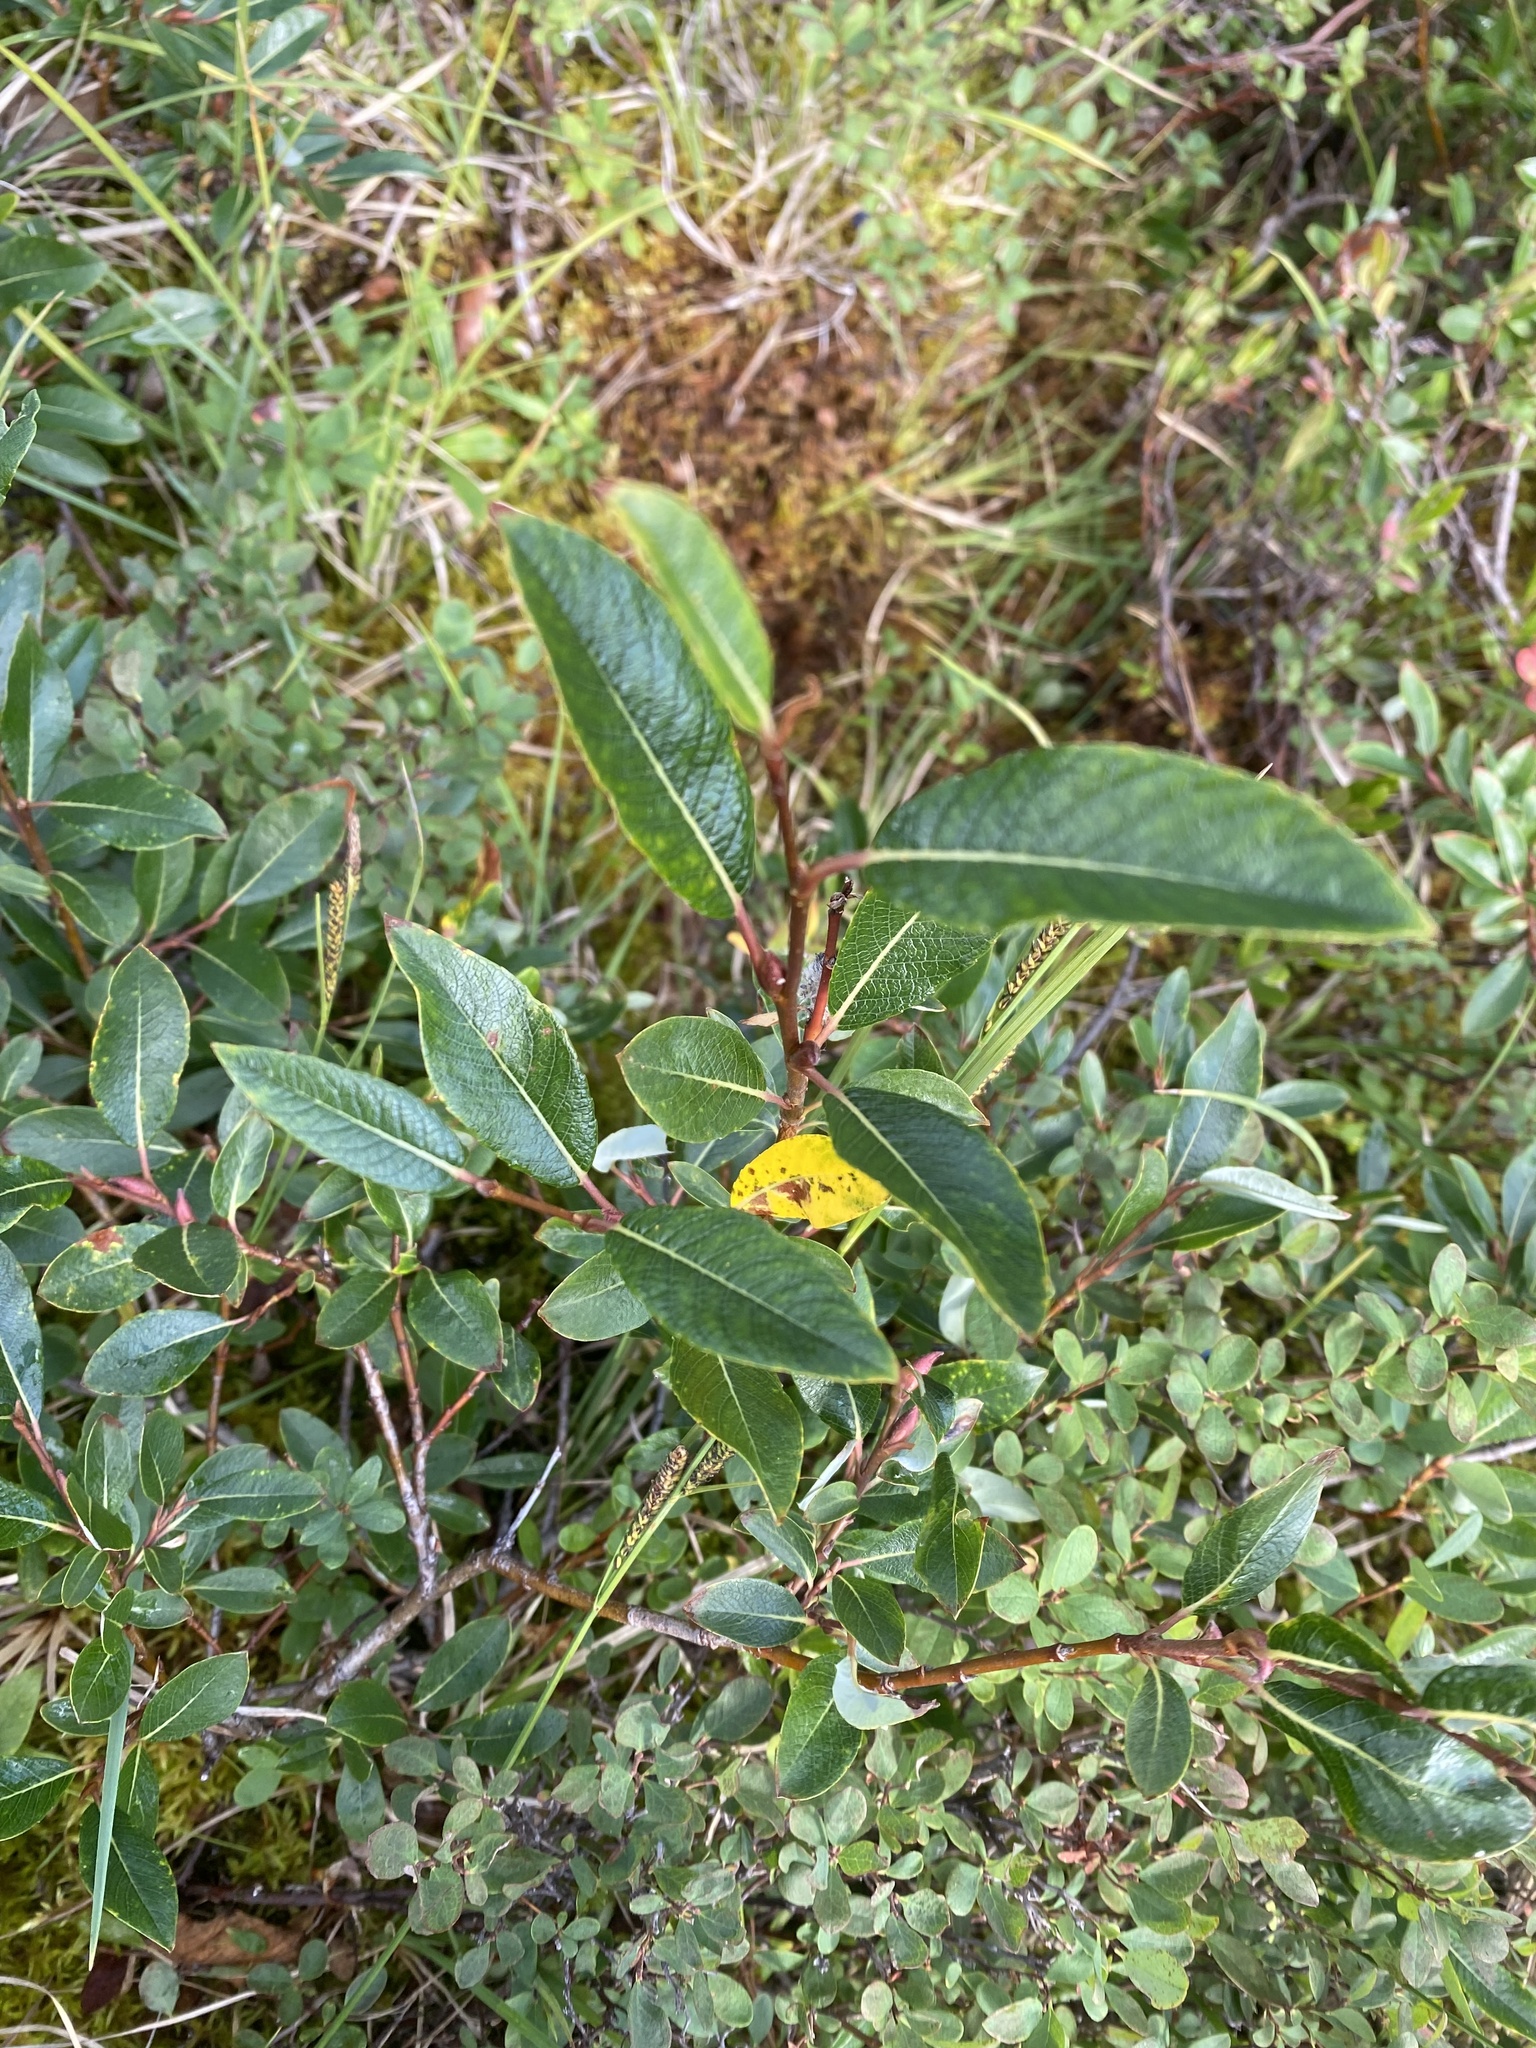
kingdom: Plantae
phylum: Tracheophyta
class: Magnoliopsida
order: Malpighiales
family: Salicaceae
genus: Salix
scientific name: Salix saxatilis
